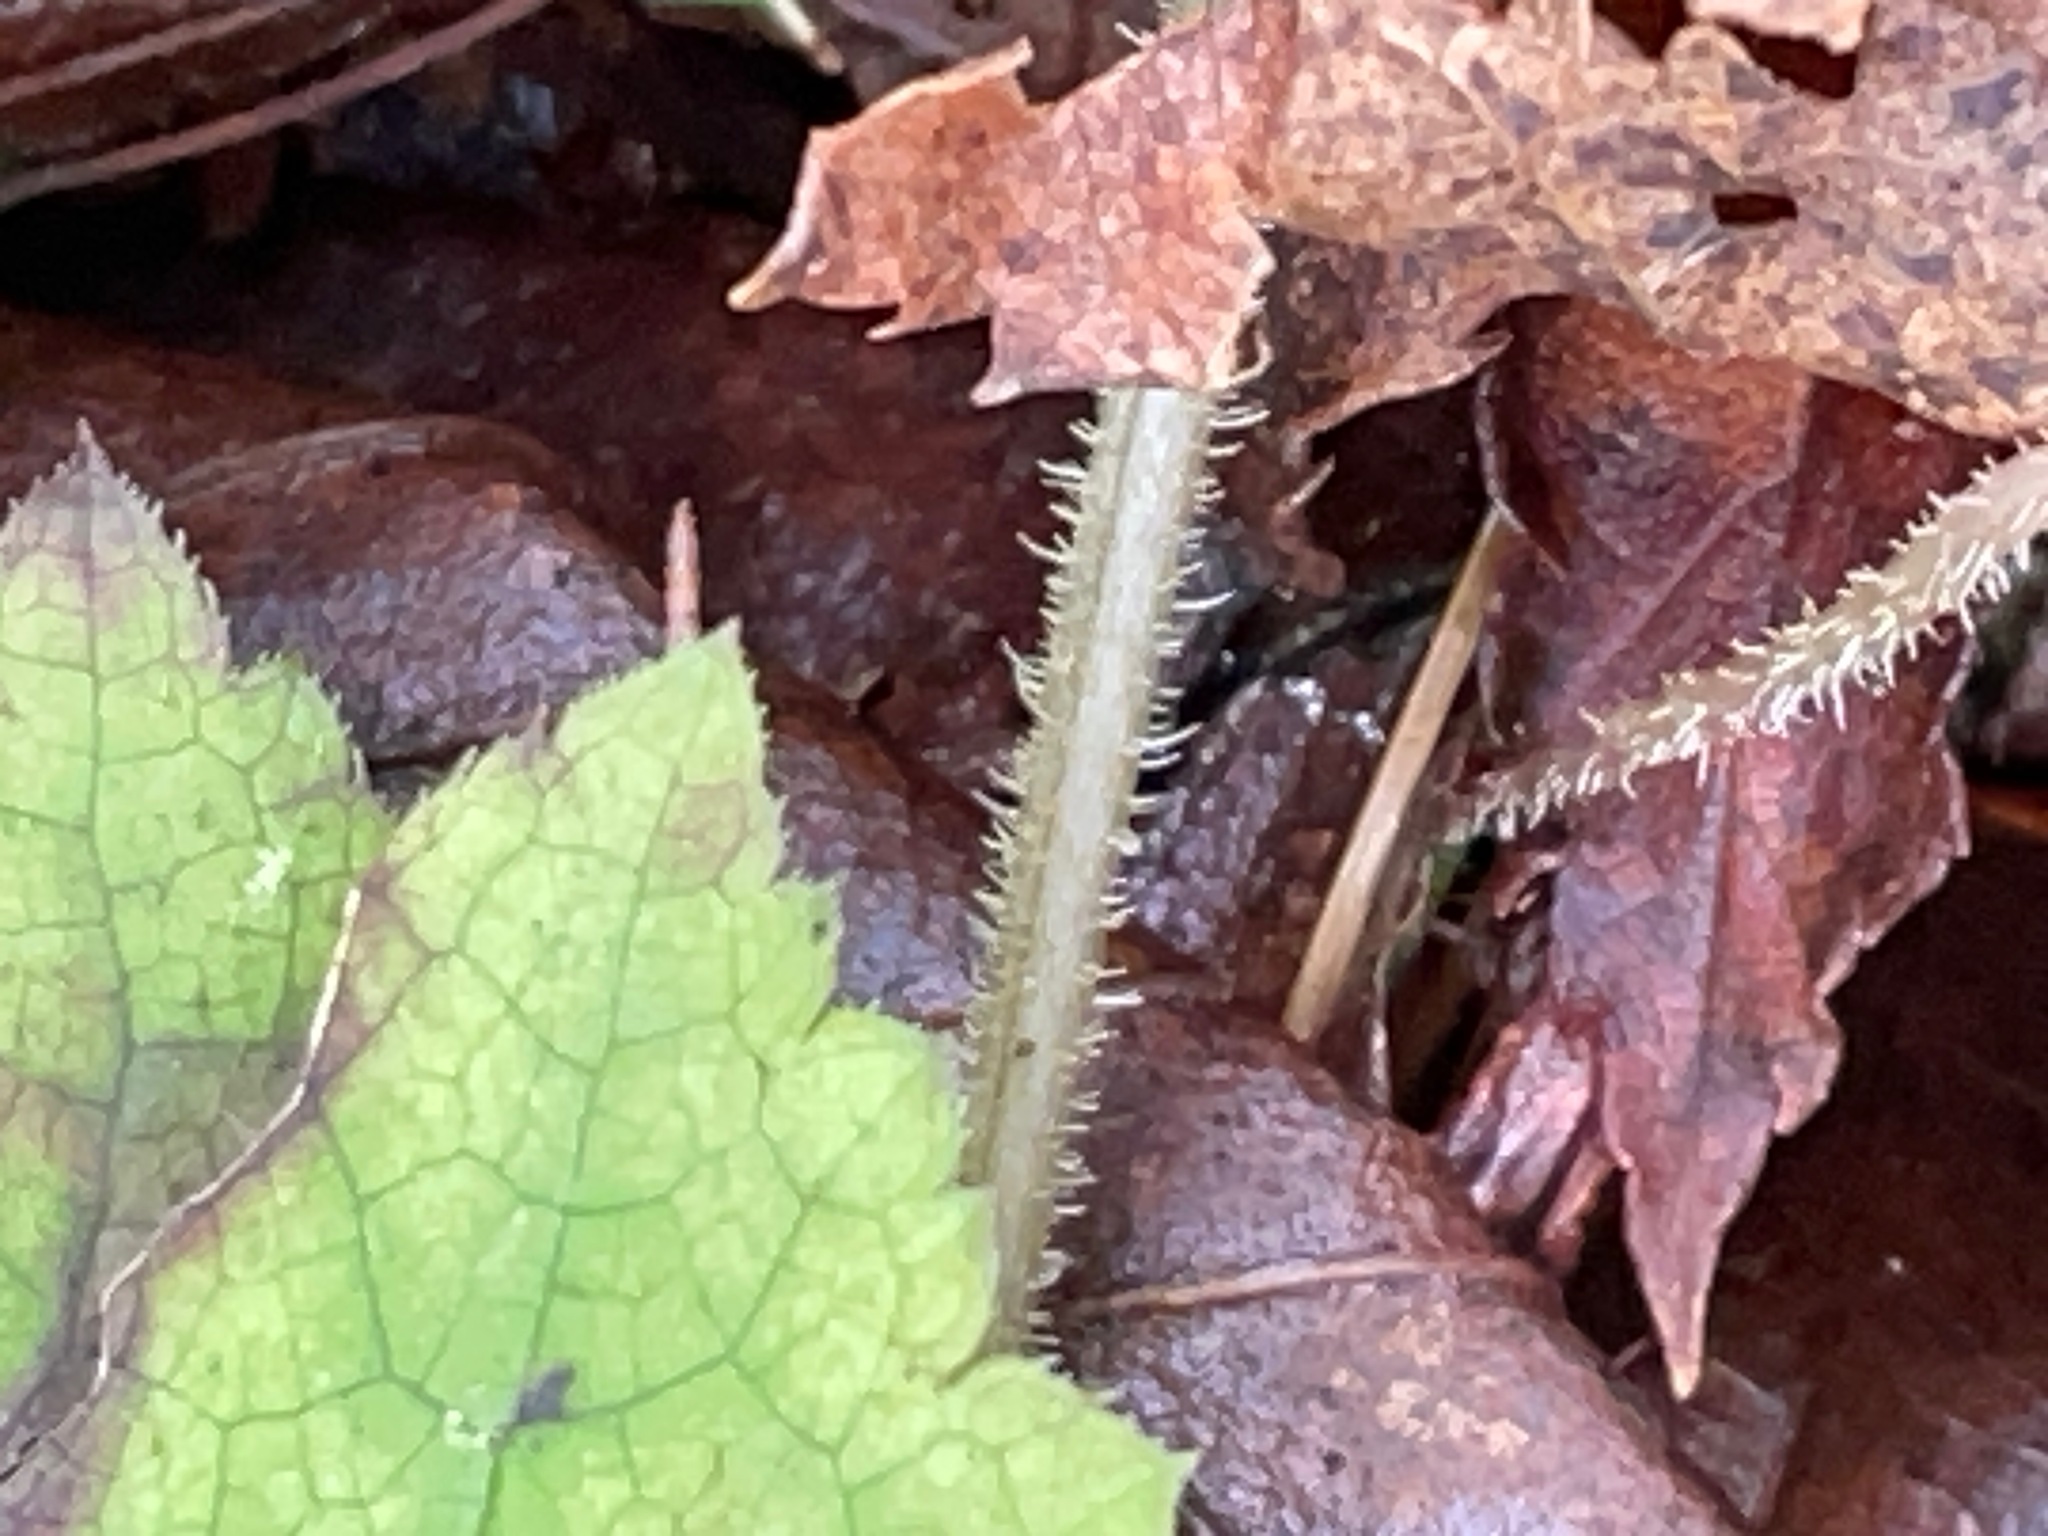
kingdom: Plantae
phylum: Tracheophyta
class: Magnoliopsida
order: Saxifragales
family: Saxifragaceae
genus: Tiarella
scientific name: Tiarella stolonifera
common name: Stoloniferous foamflower
